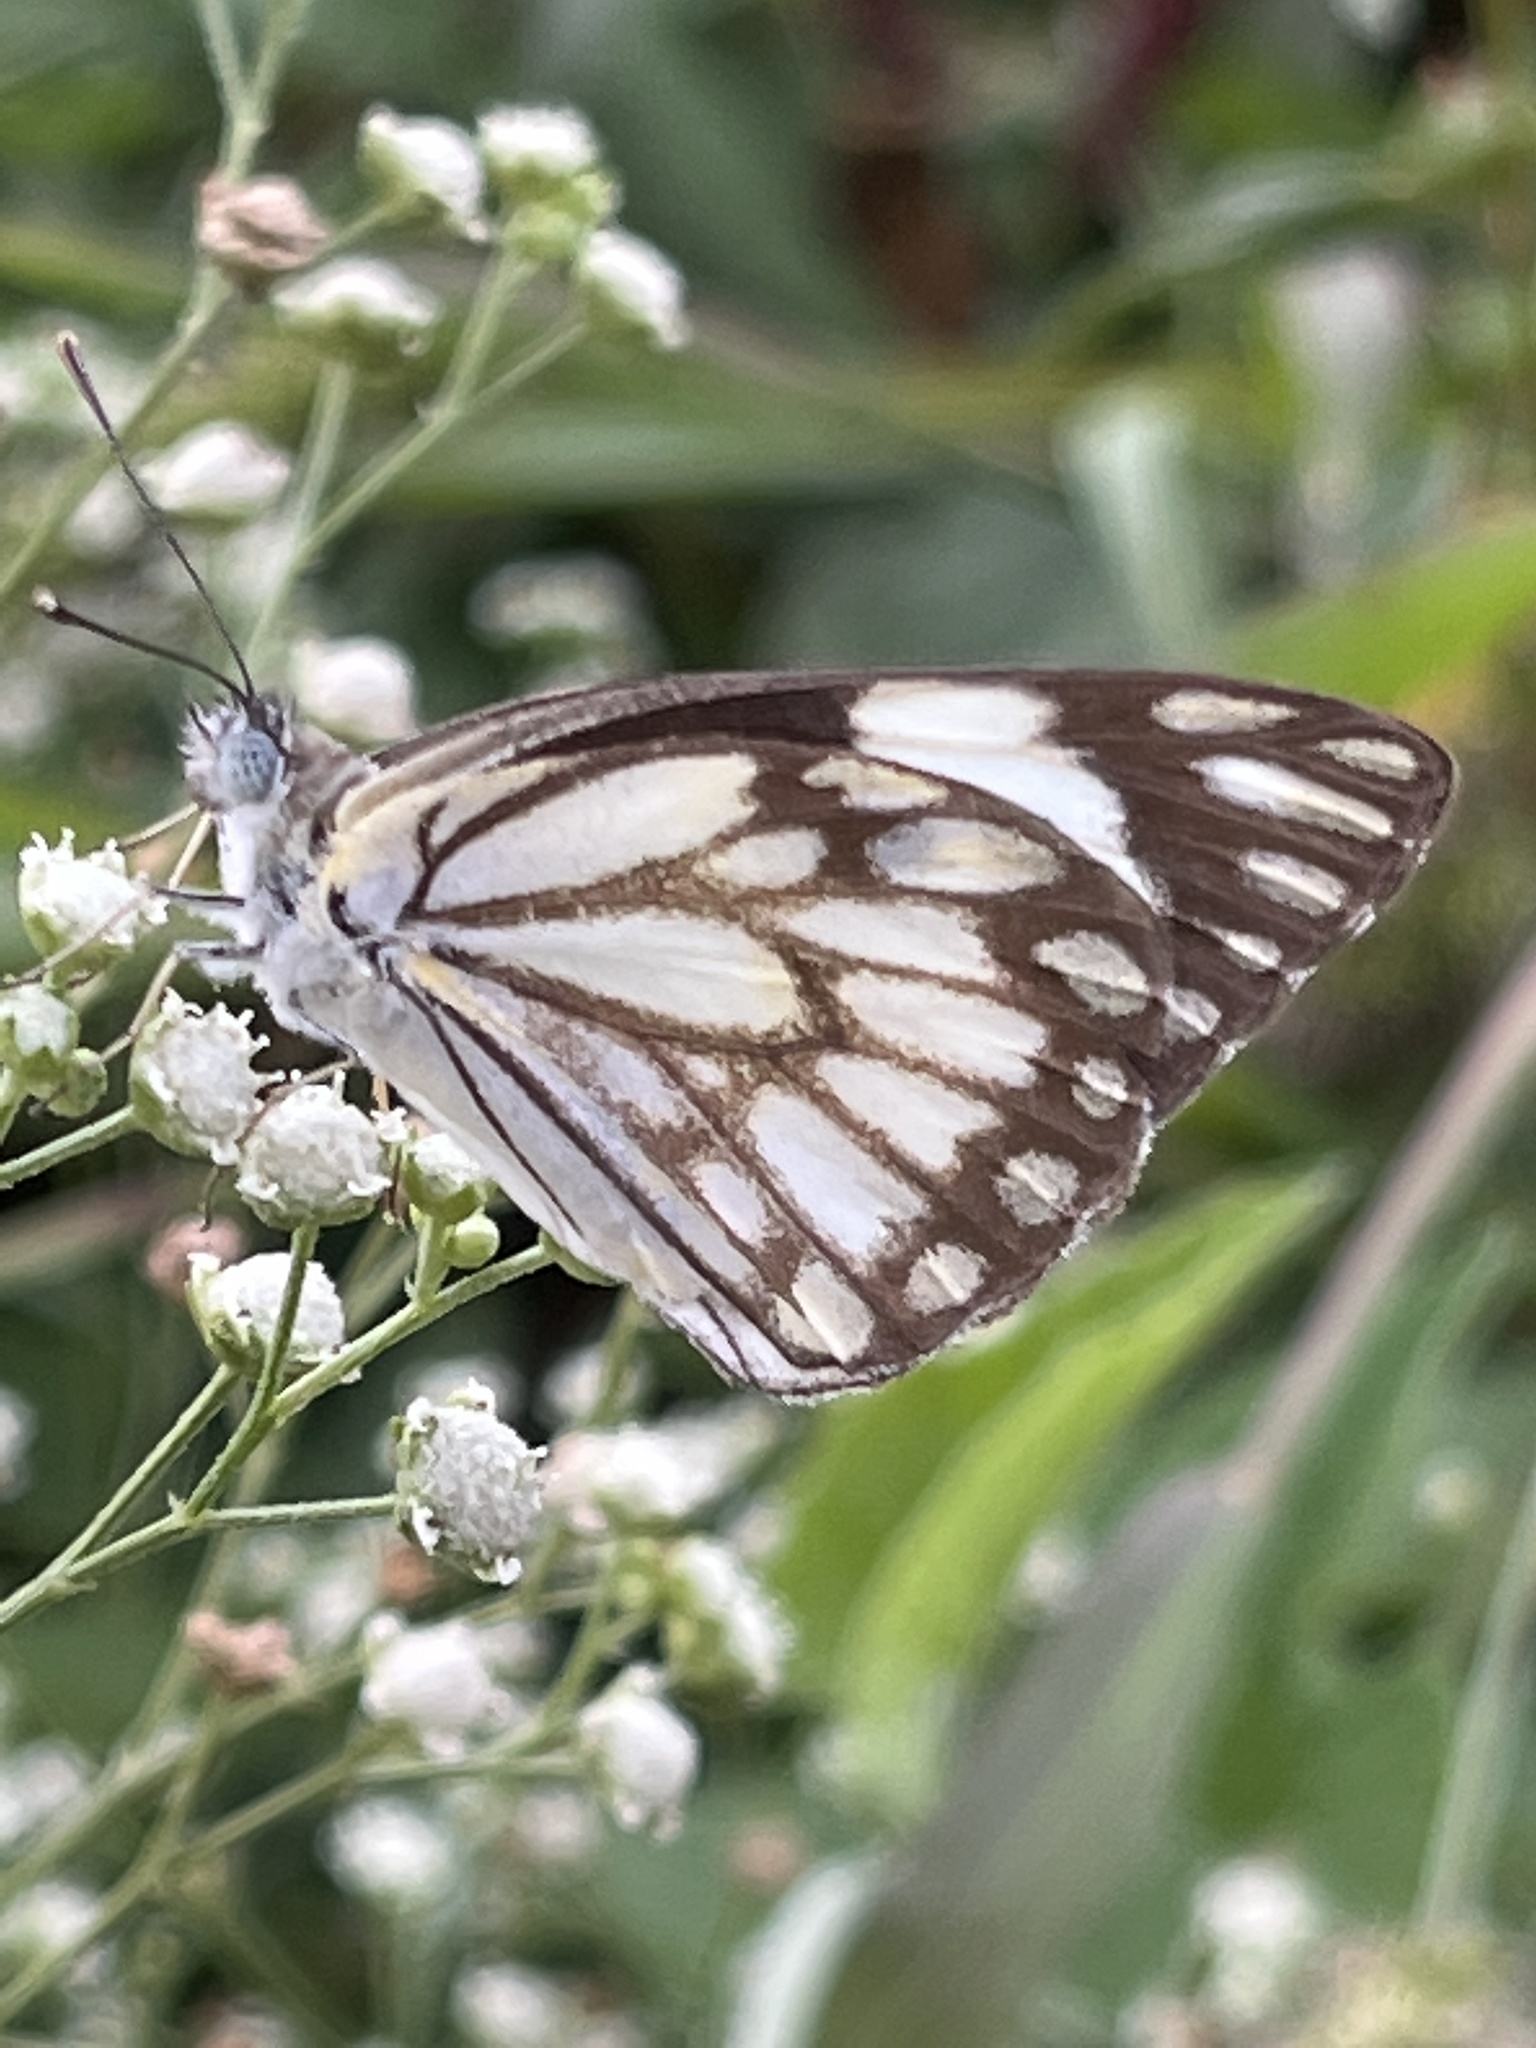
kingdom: Animalia
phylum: Arthropoda
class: Insecta
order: Lepidoptera
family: Pieridae
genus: Belenois
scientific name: Belenois aurota
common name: Brown-veined white
